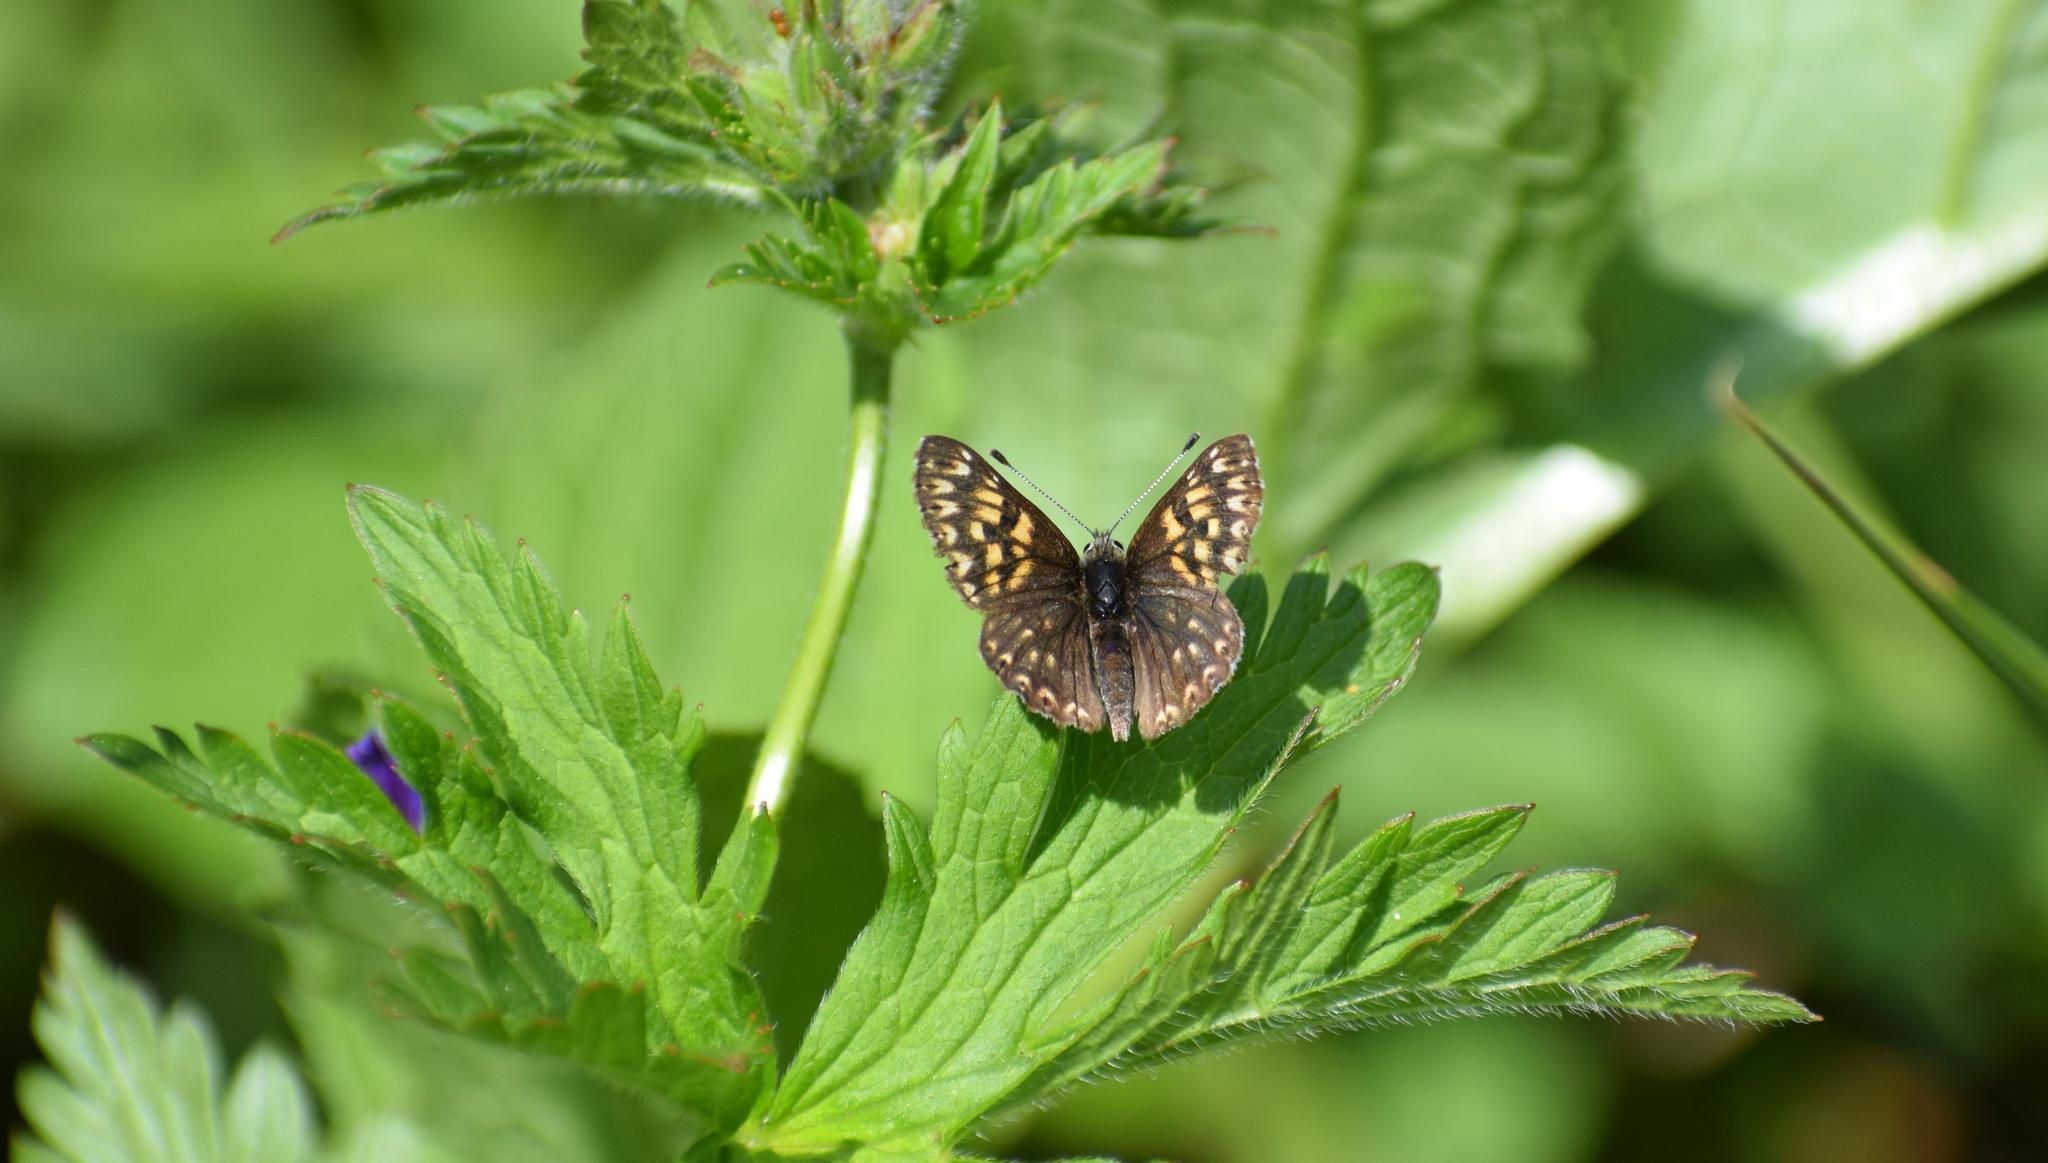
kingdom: Animalia
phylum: Arthropoda
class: Insecta
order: Lepidoptera
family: Riodinidae
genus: Hamearis
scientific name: Hamearis lucina
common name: Duke of burgundy fritillary
